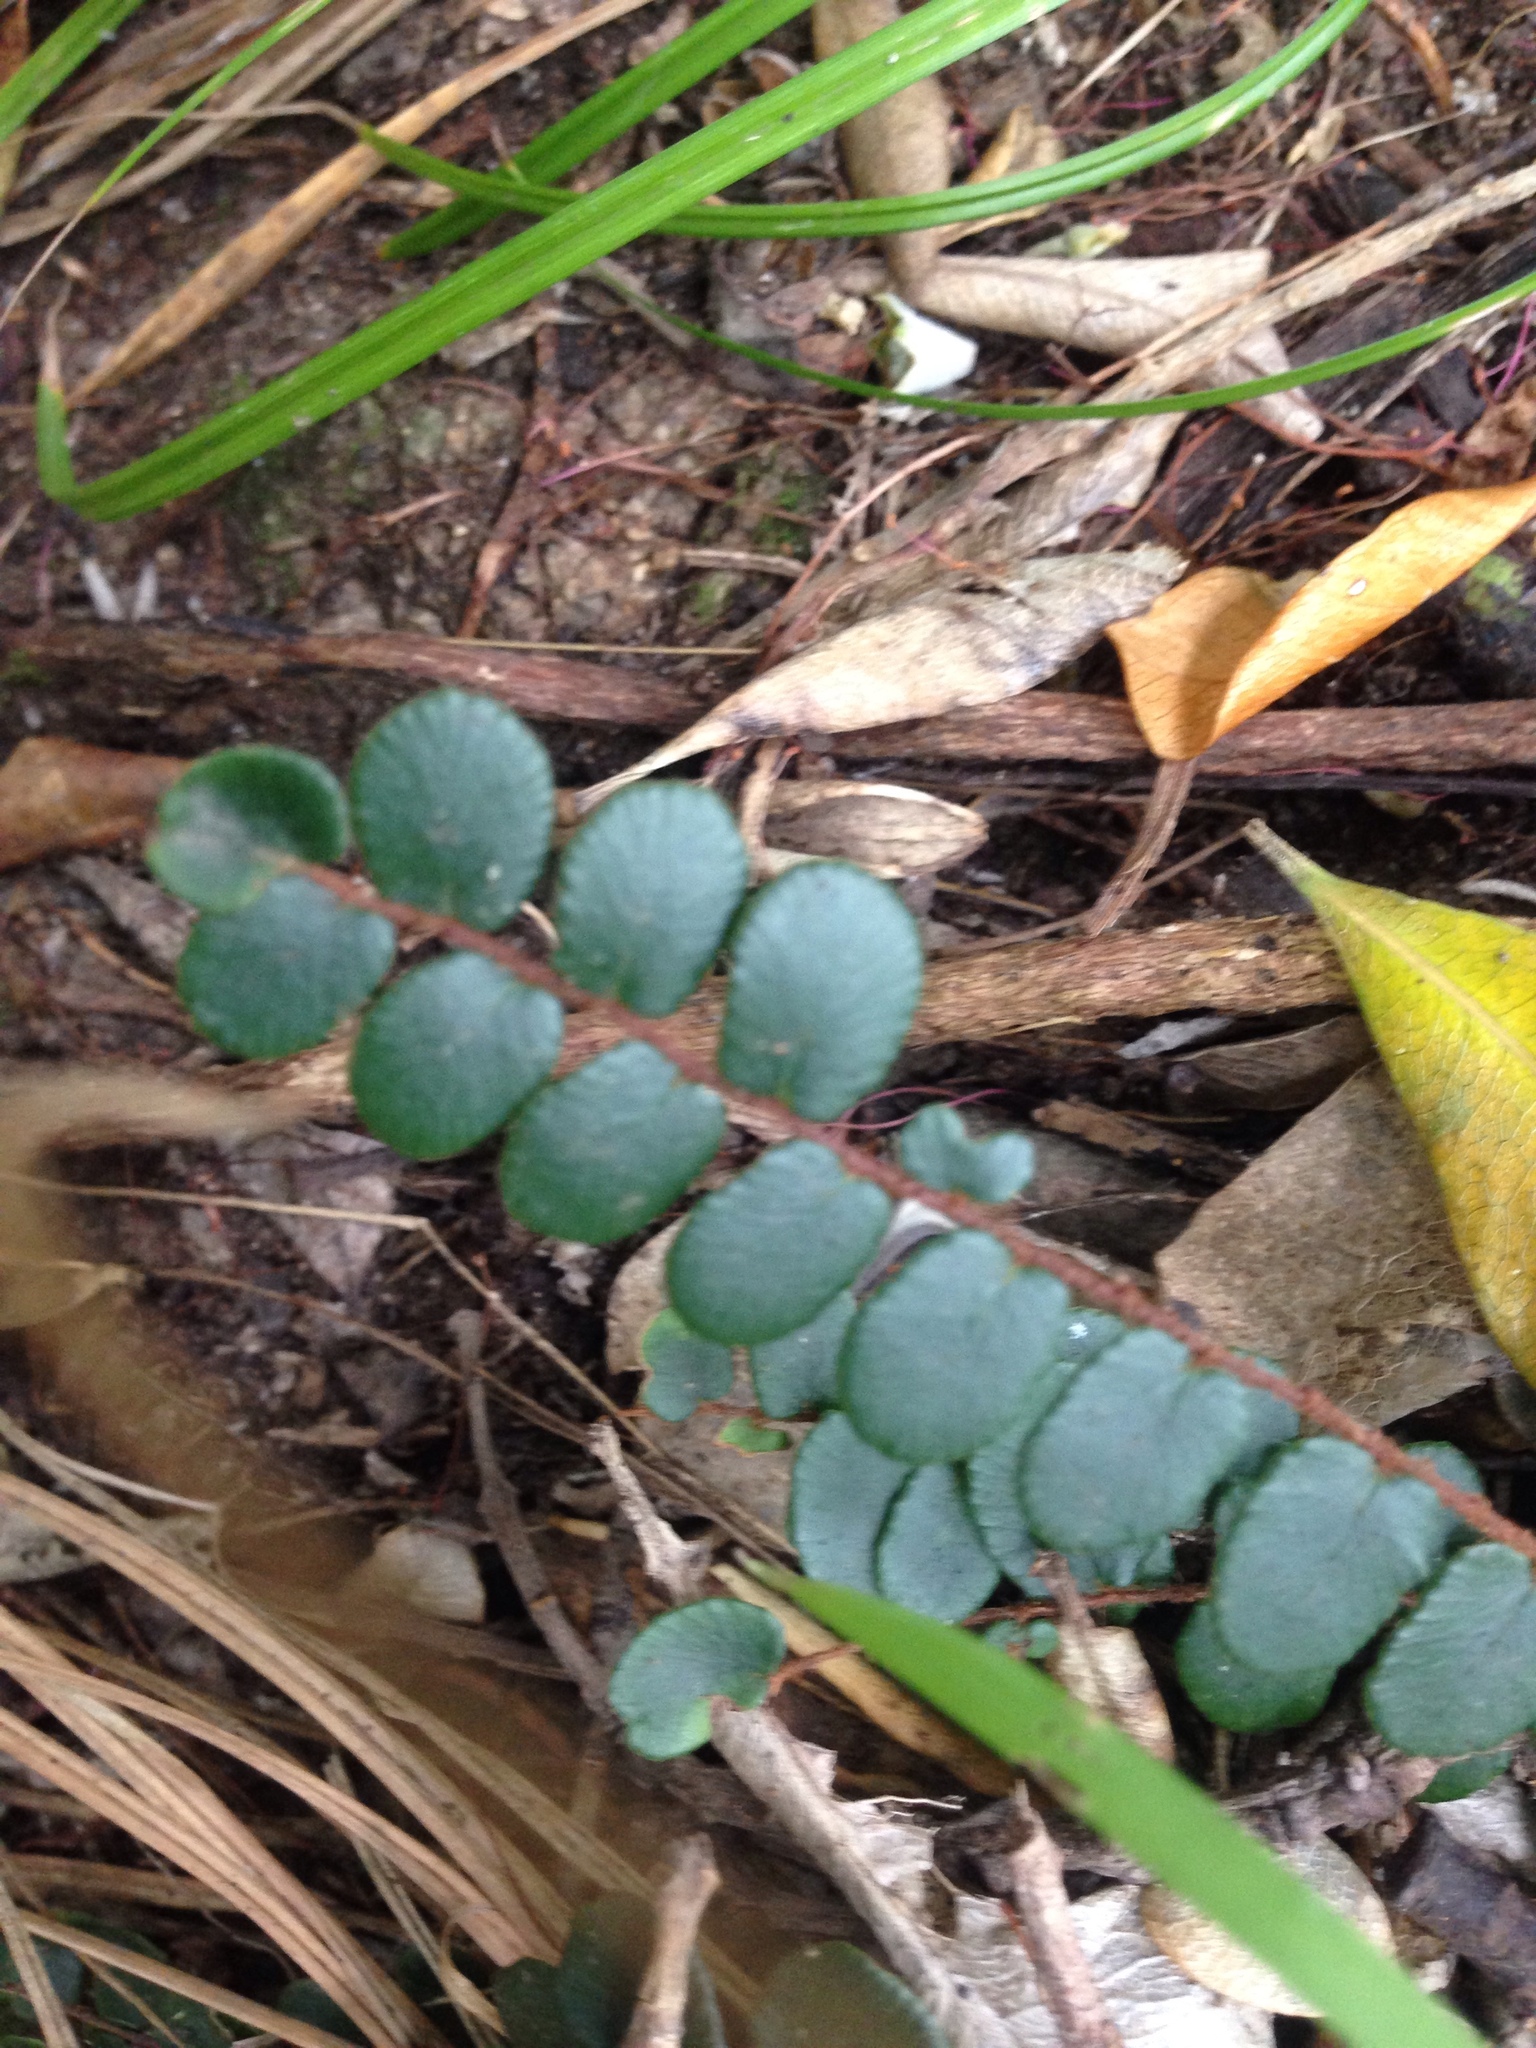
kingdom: Plantae
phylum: Tracheophyta
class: Polypodiopsida
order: Polypodiales
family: Pteridaceae
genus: Pellaea
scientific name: Pellaea rotundifolia
